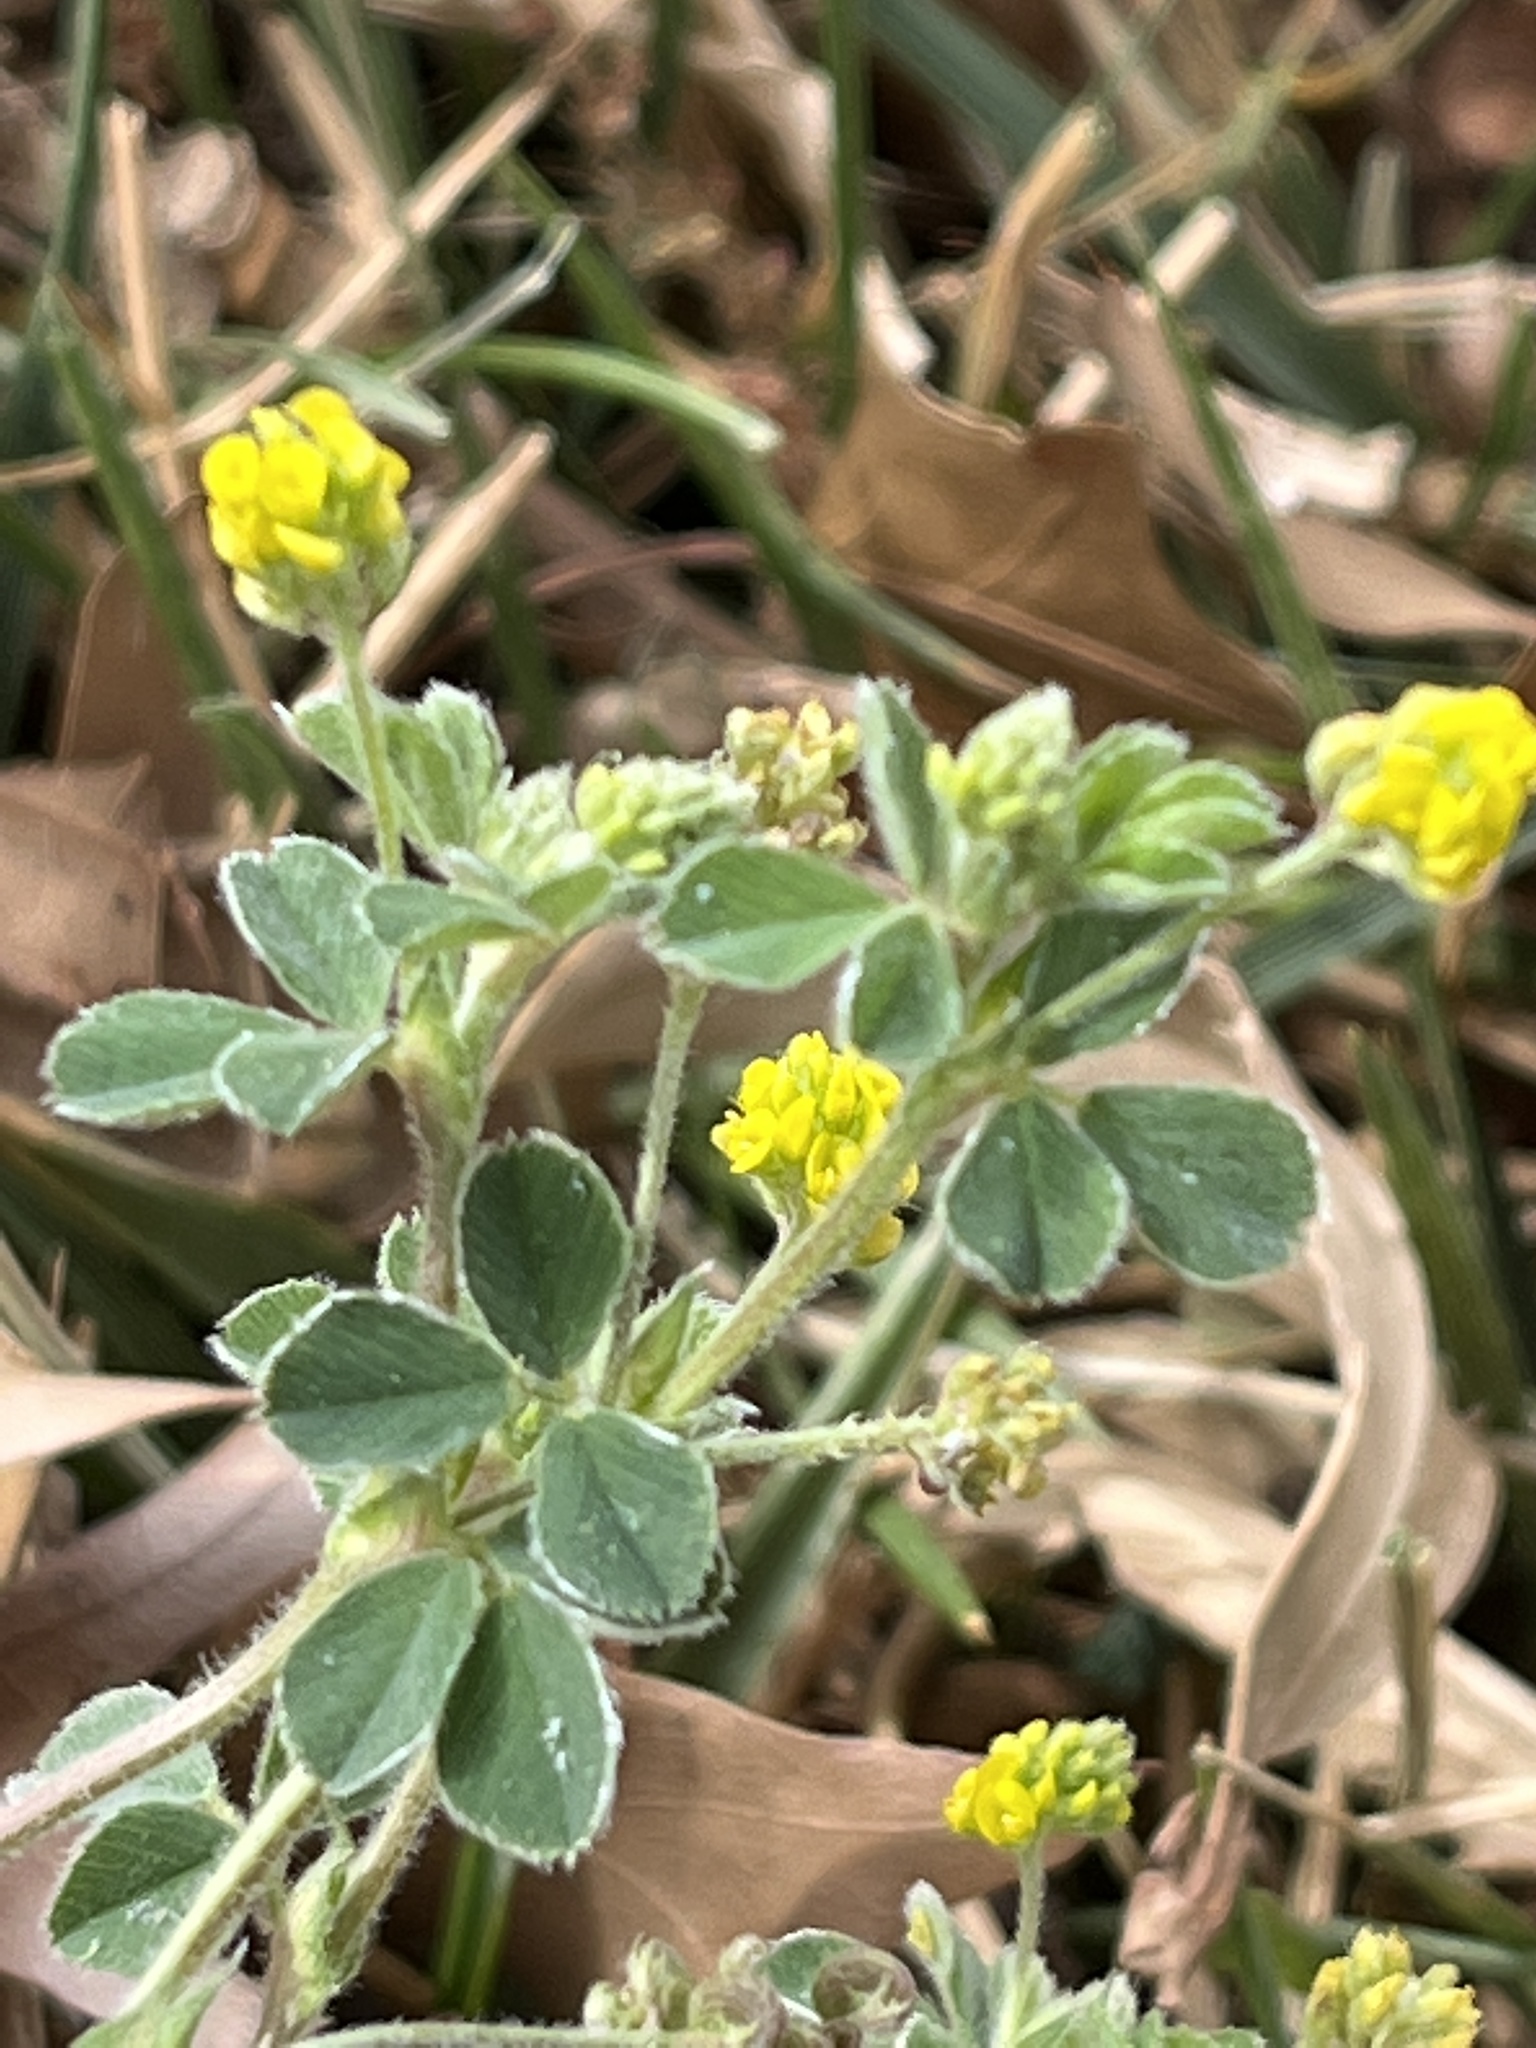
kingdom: Plantae
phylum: Tracheophyta
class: Magnoliopsida
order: Fabales
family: Fabaceae
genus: Medicago
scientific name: Medicago lupulina
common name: Black medick
